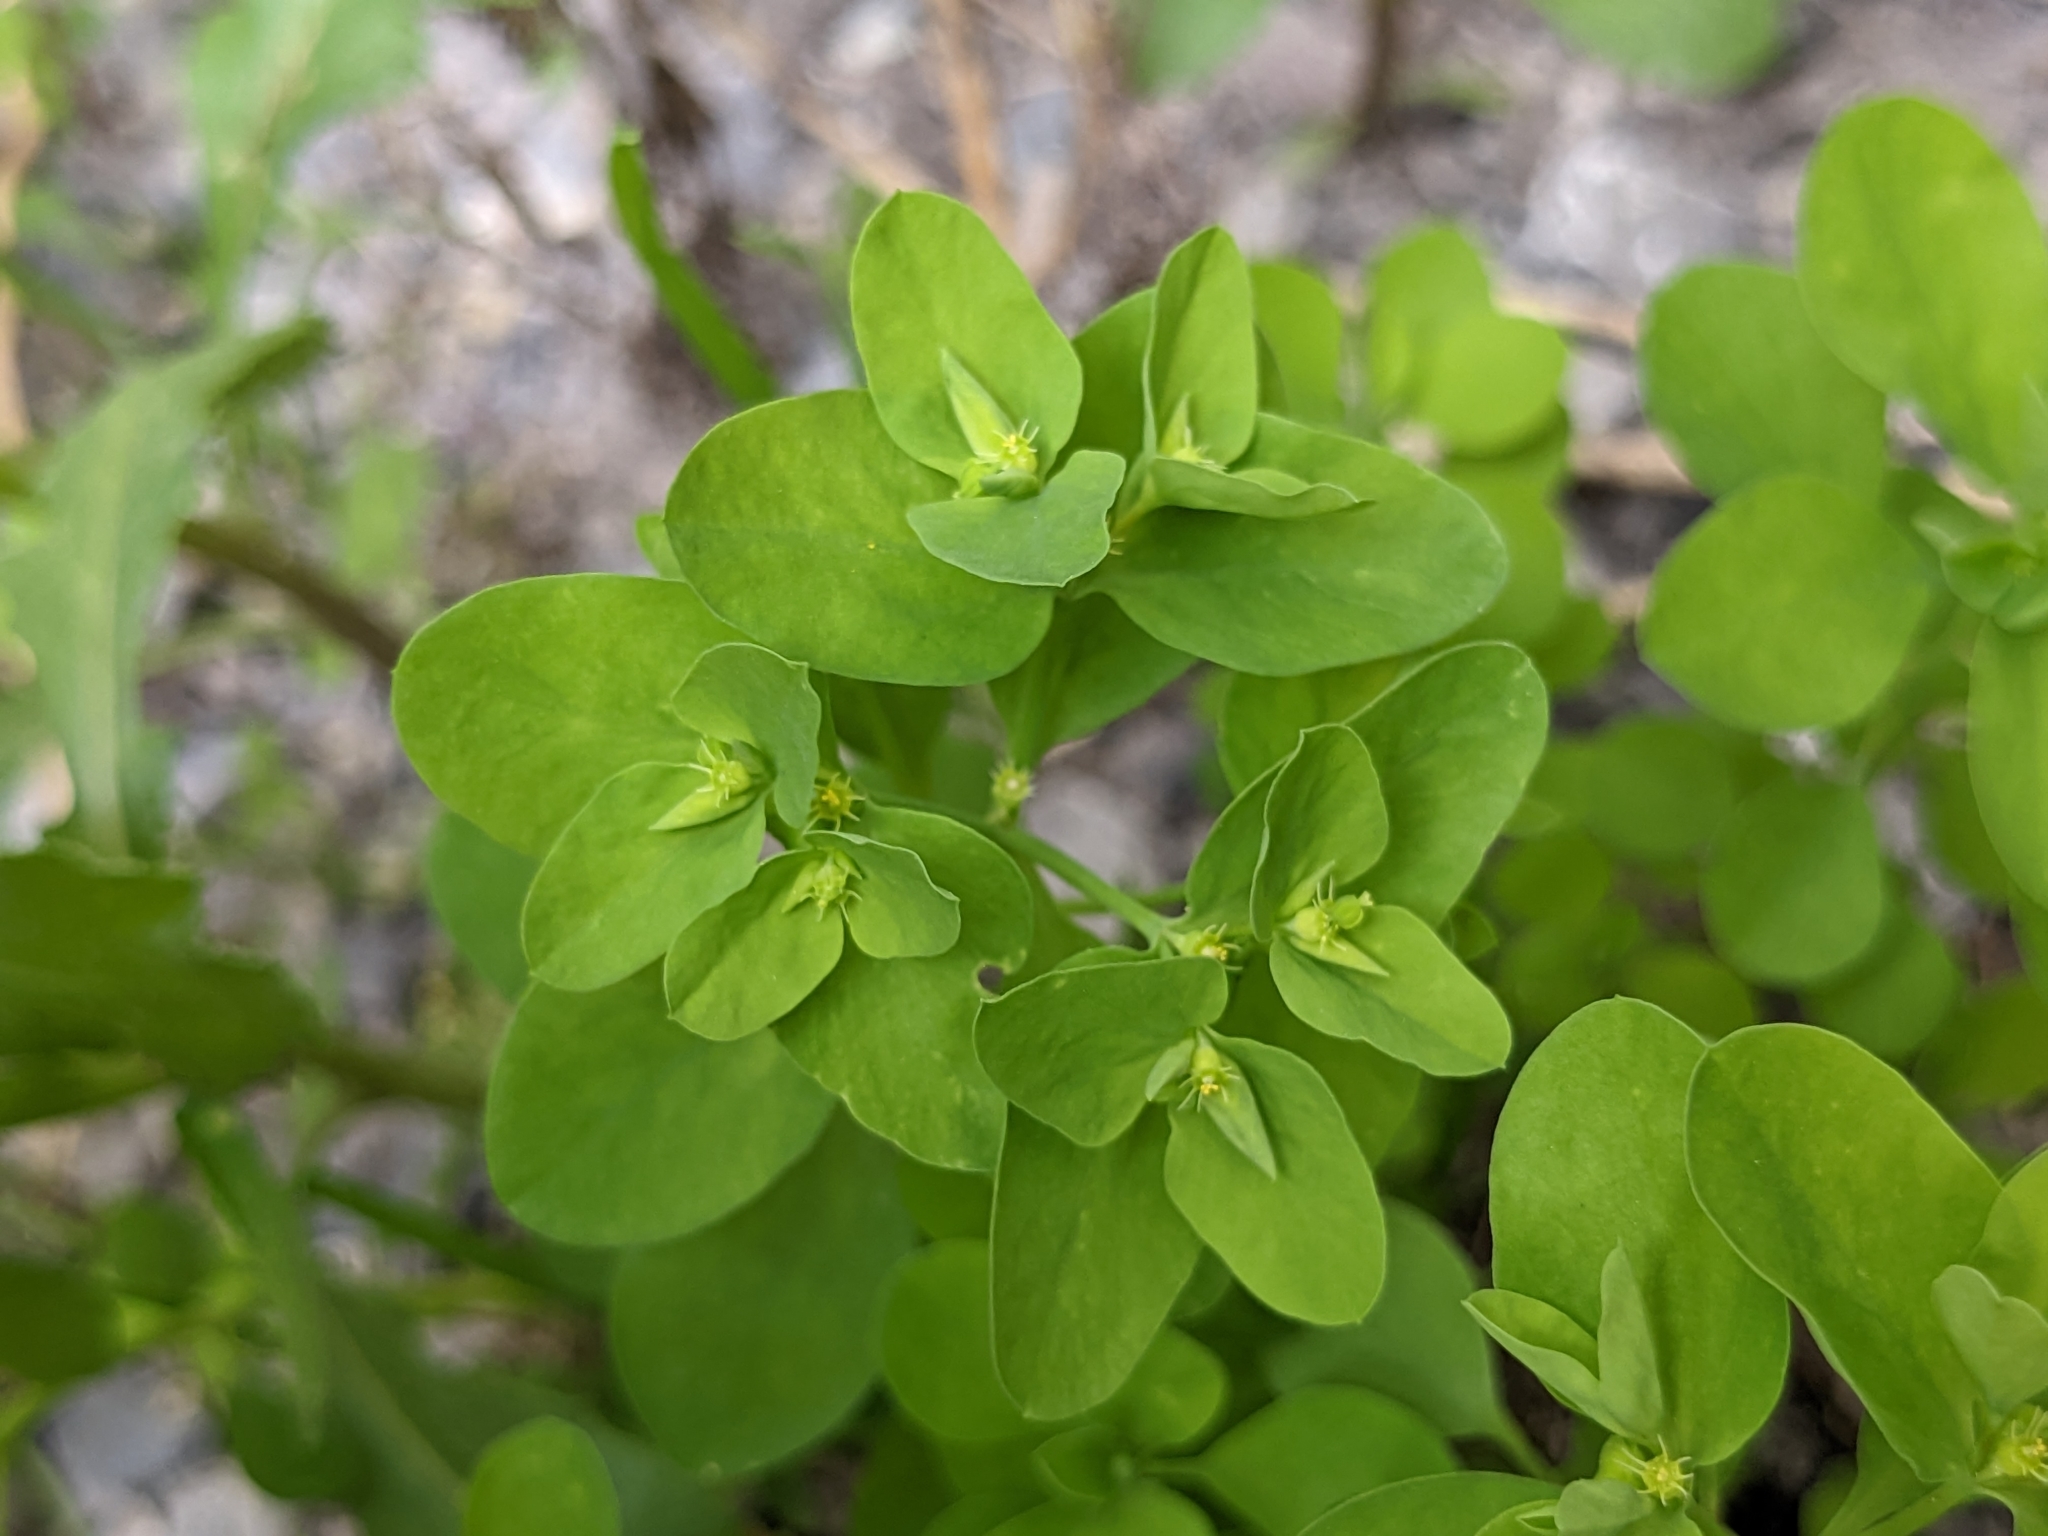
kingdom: Plantae
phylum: Tracheophyta
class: Magnoliopsida
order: Malpighiales
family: Euphorbiaceae
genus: Euphorbia
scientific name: Euphorbia peplus
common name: Petty spurge
